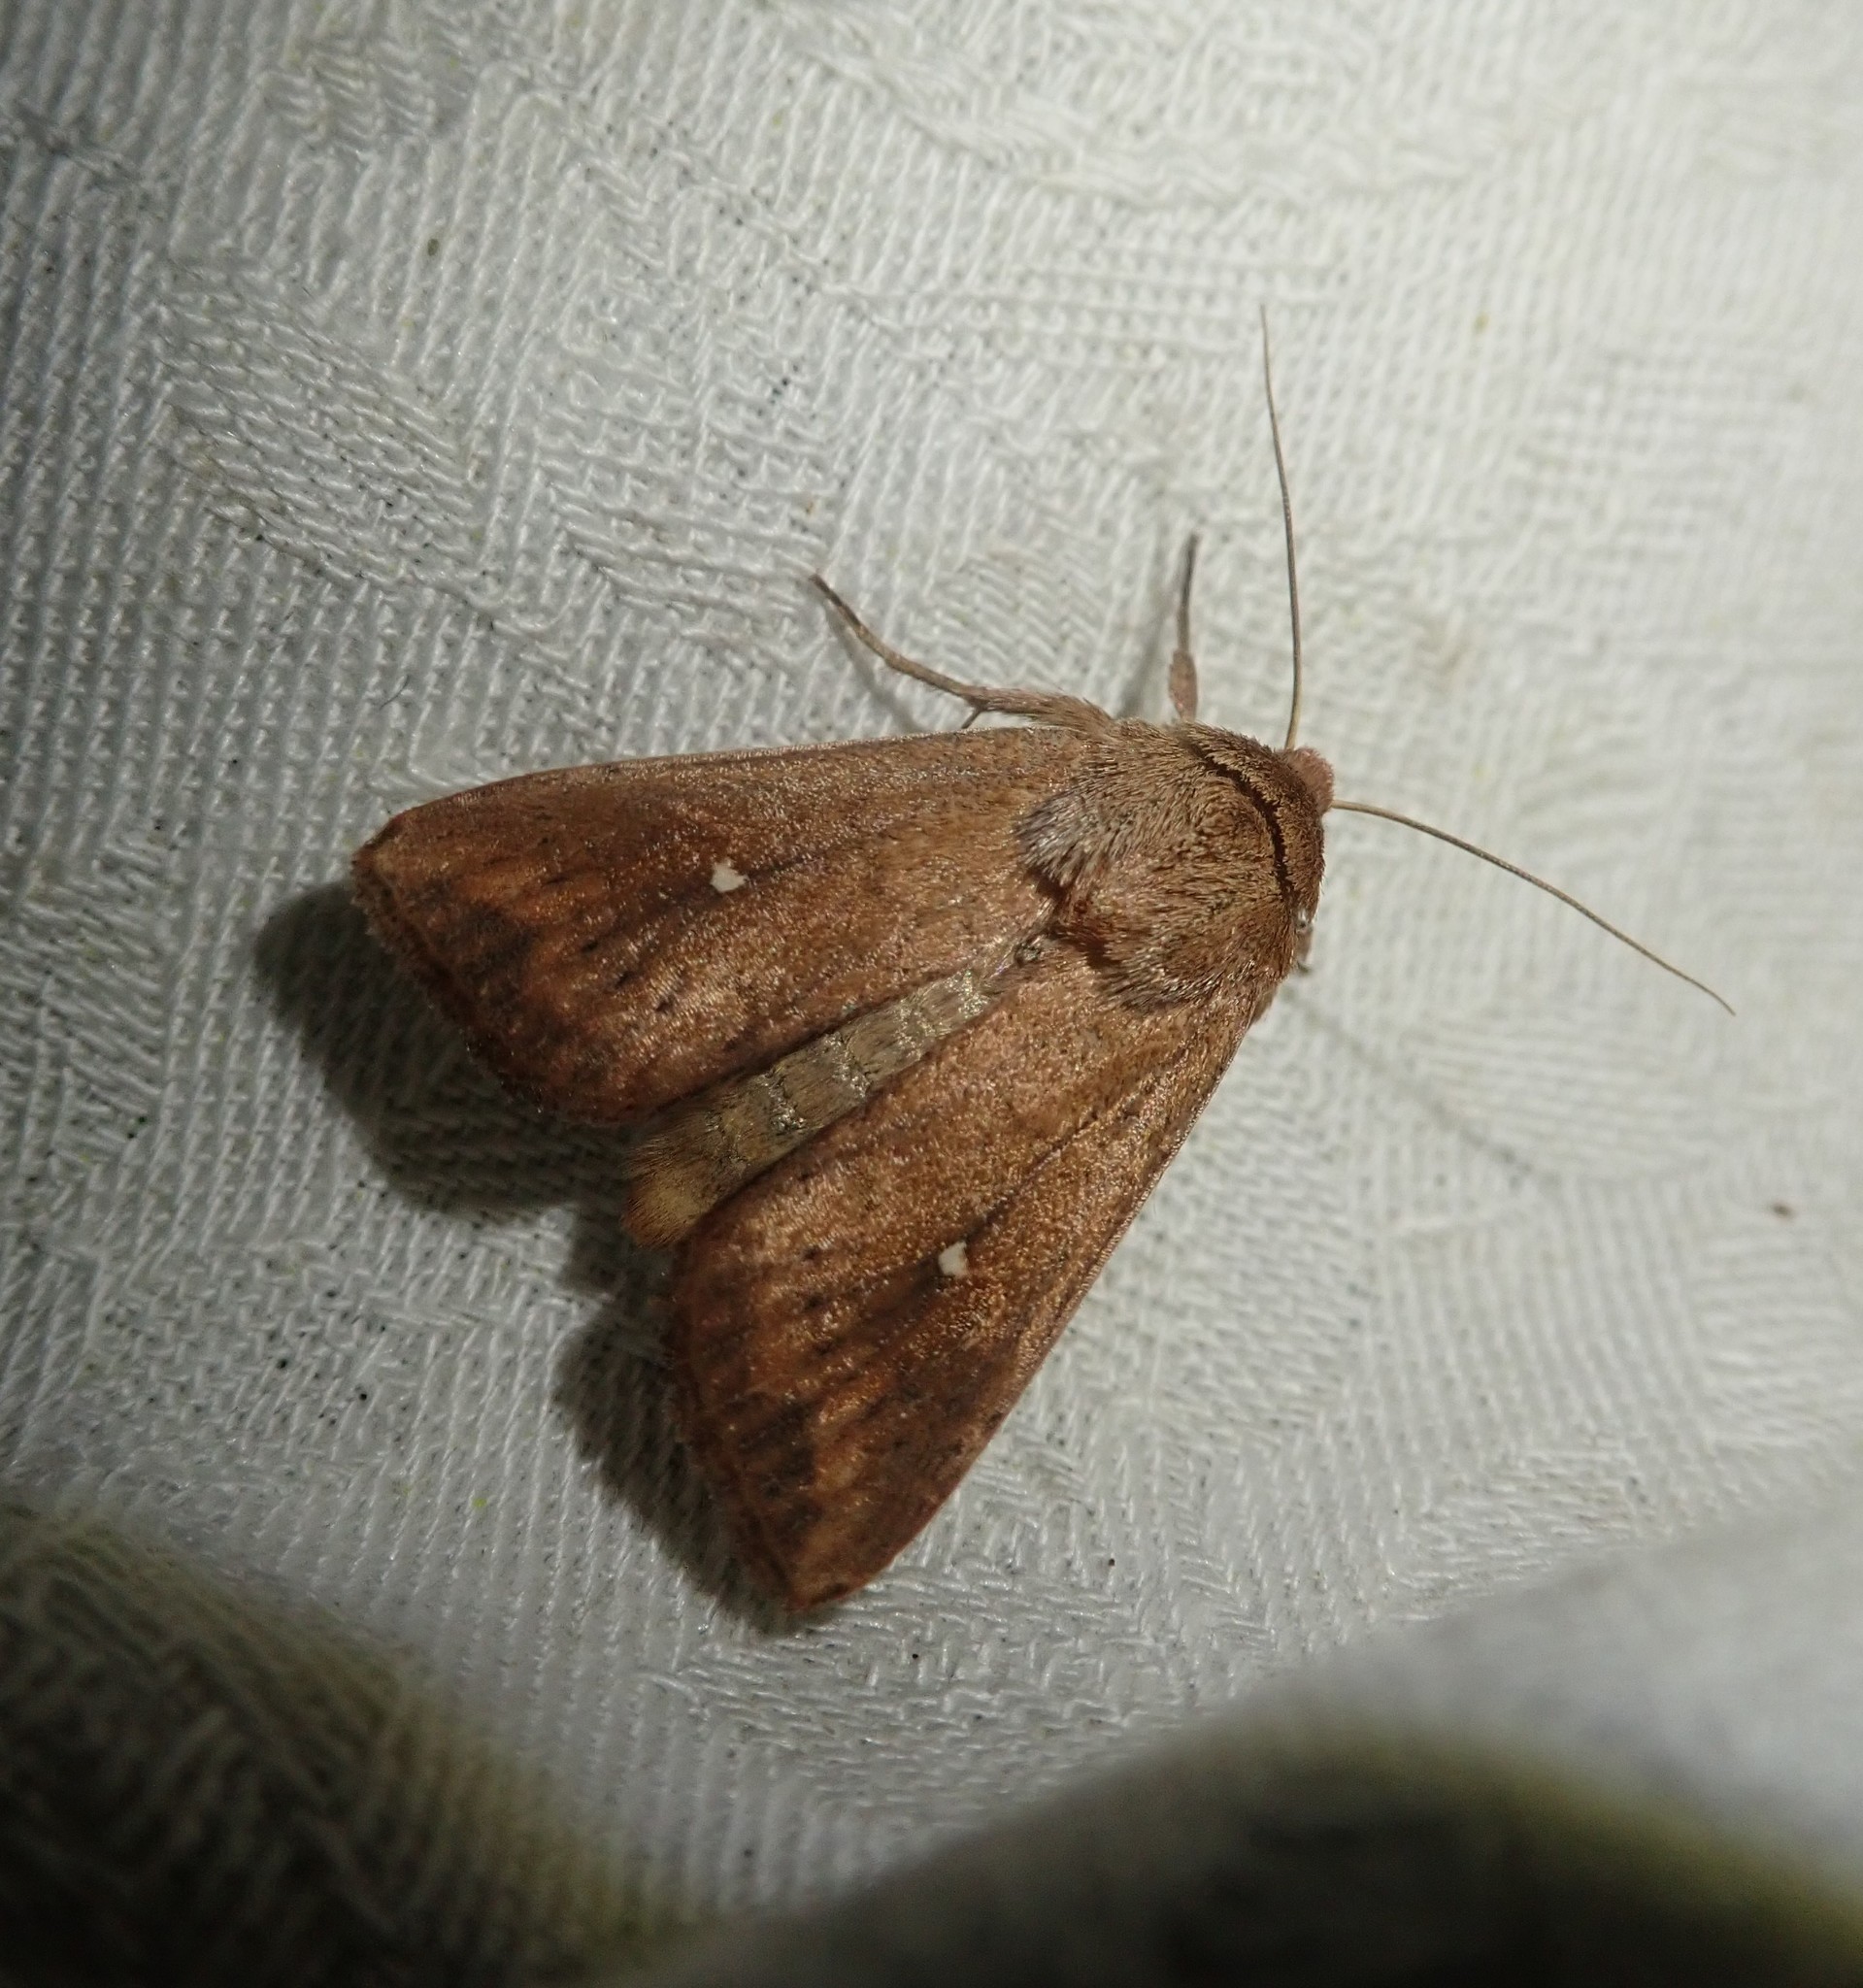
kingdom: Animalia
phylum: Arthropoda
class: Insecta
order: Lepidoptera
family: Noctuidae
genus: Mythimna
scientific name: Mythimna albipuncta
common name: White-point
